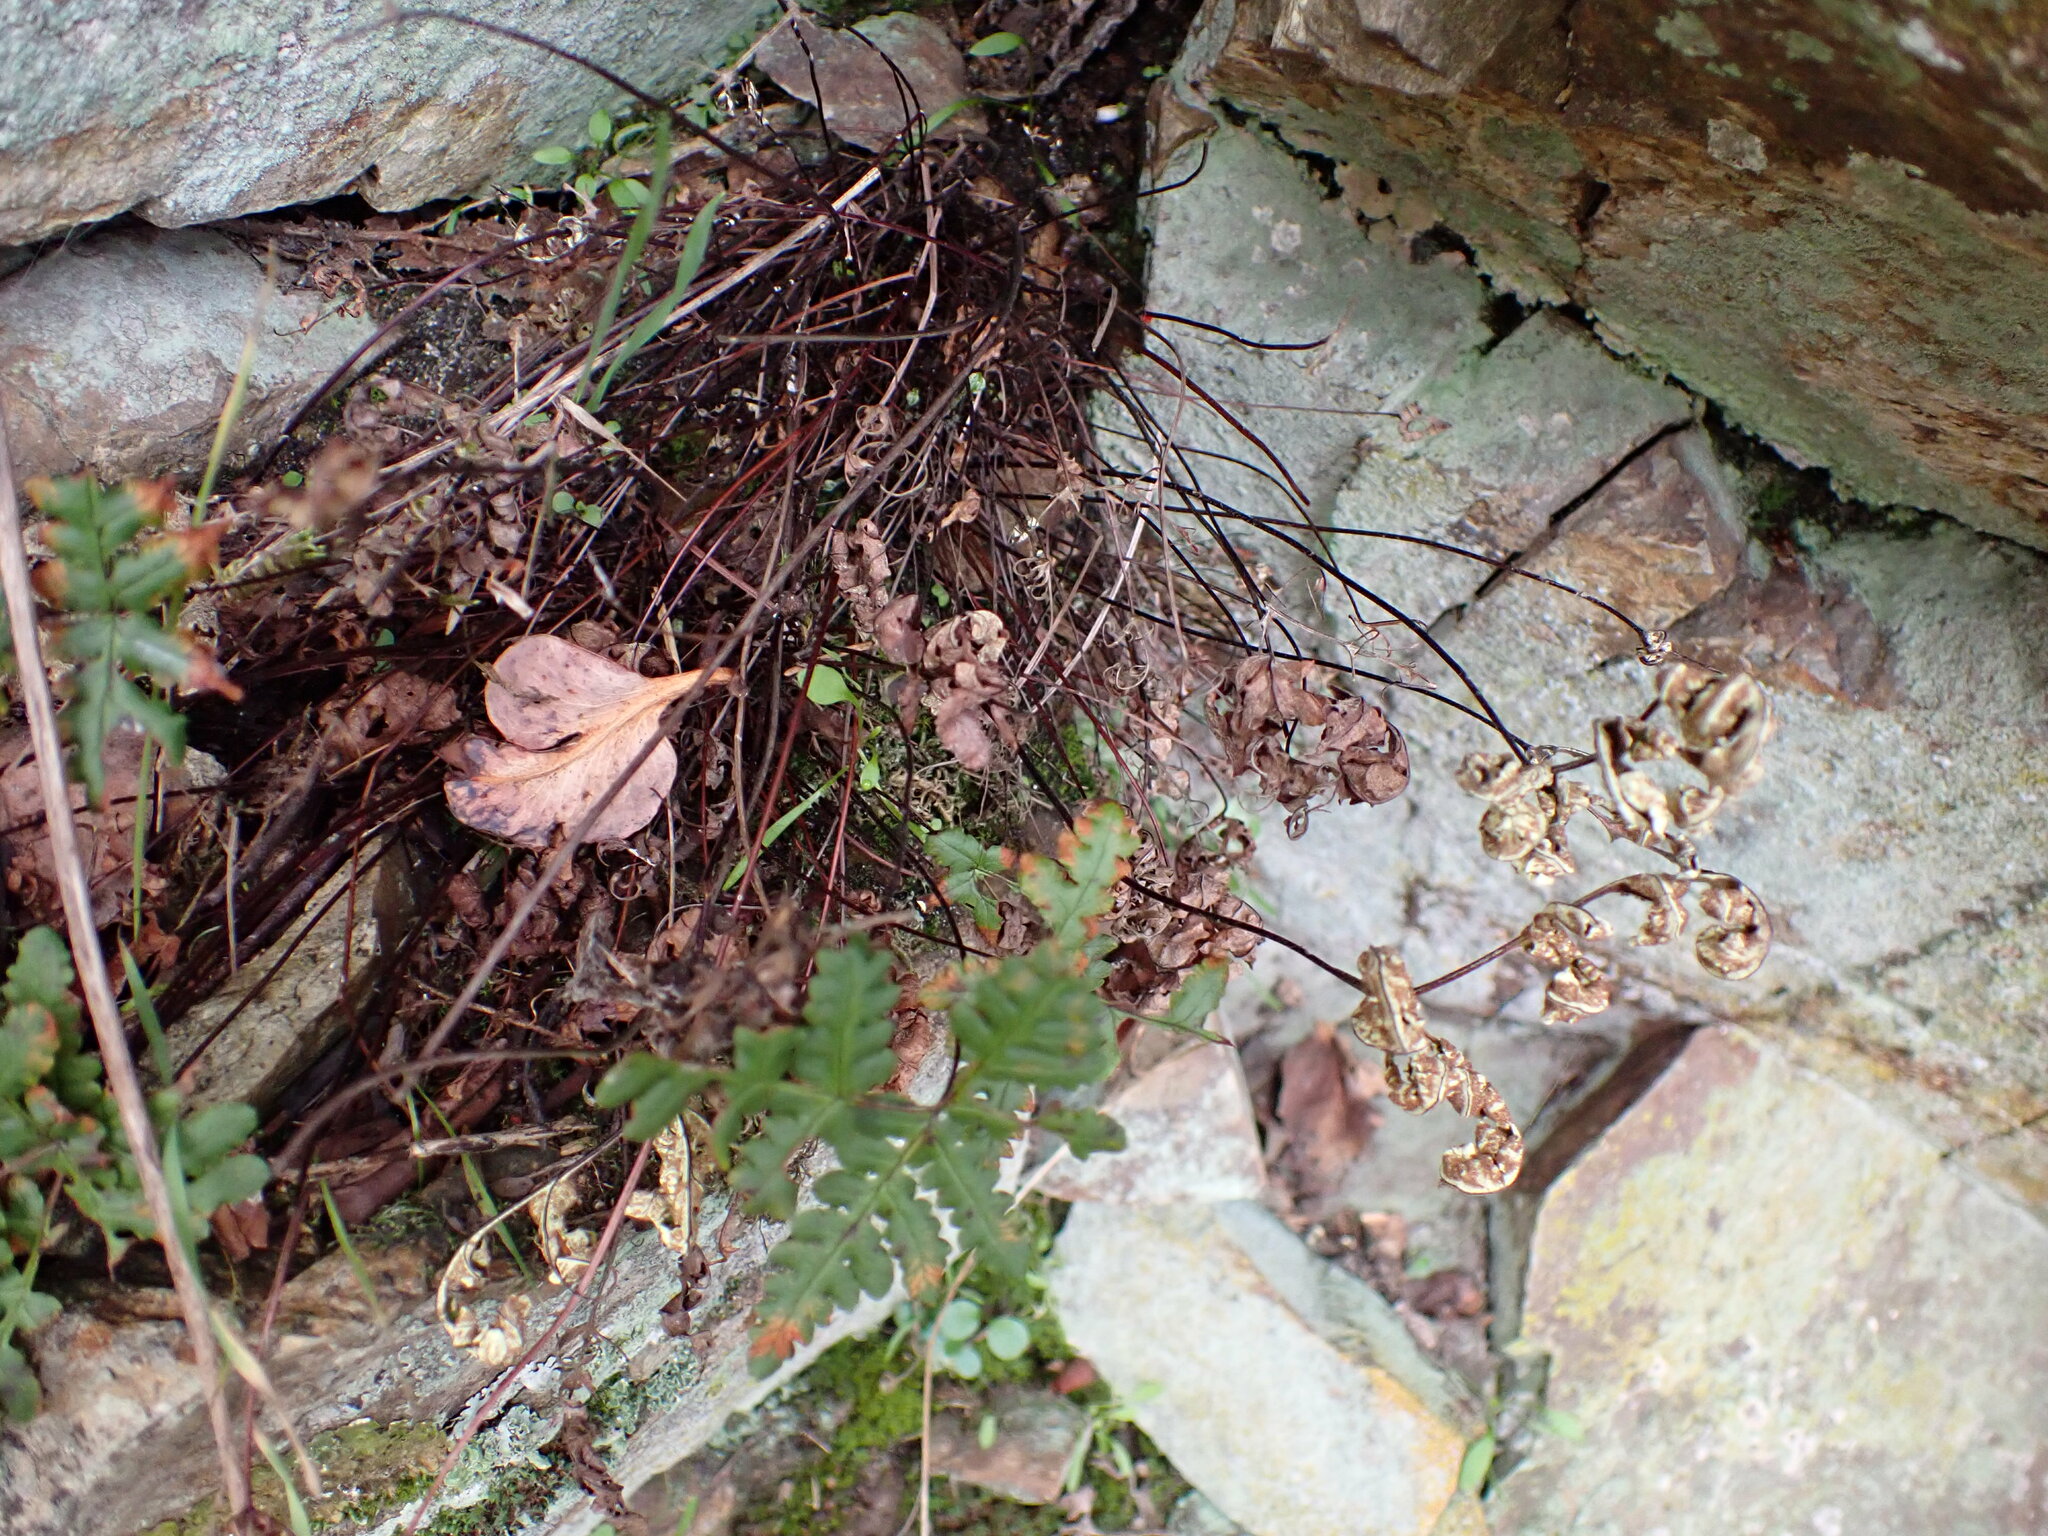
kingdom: Plantae
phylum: Tracheophyta
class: Polypodiopsida
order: Polypodiales
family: Pteridaceae
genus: Pentagramma
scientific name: Pentagramma triangularis
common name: Gold fern
